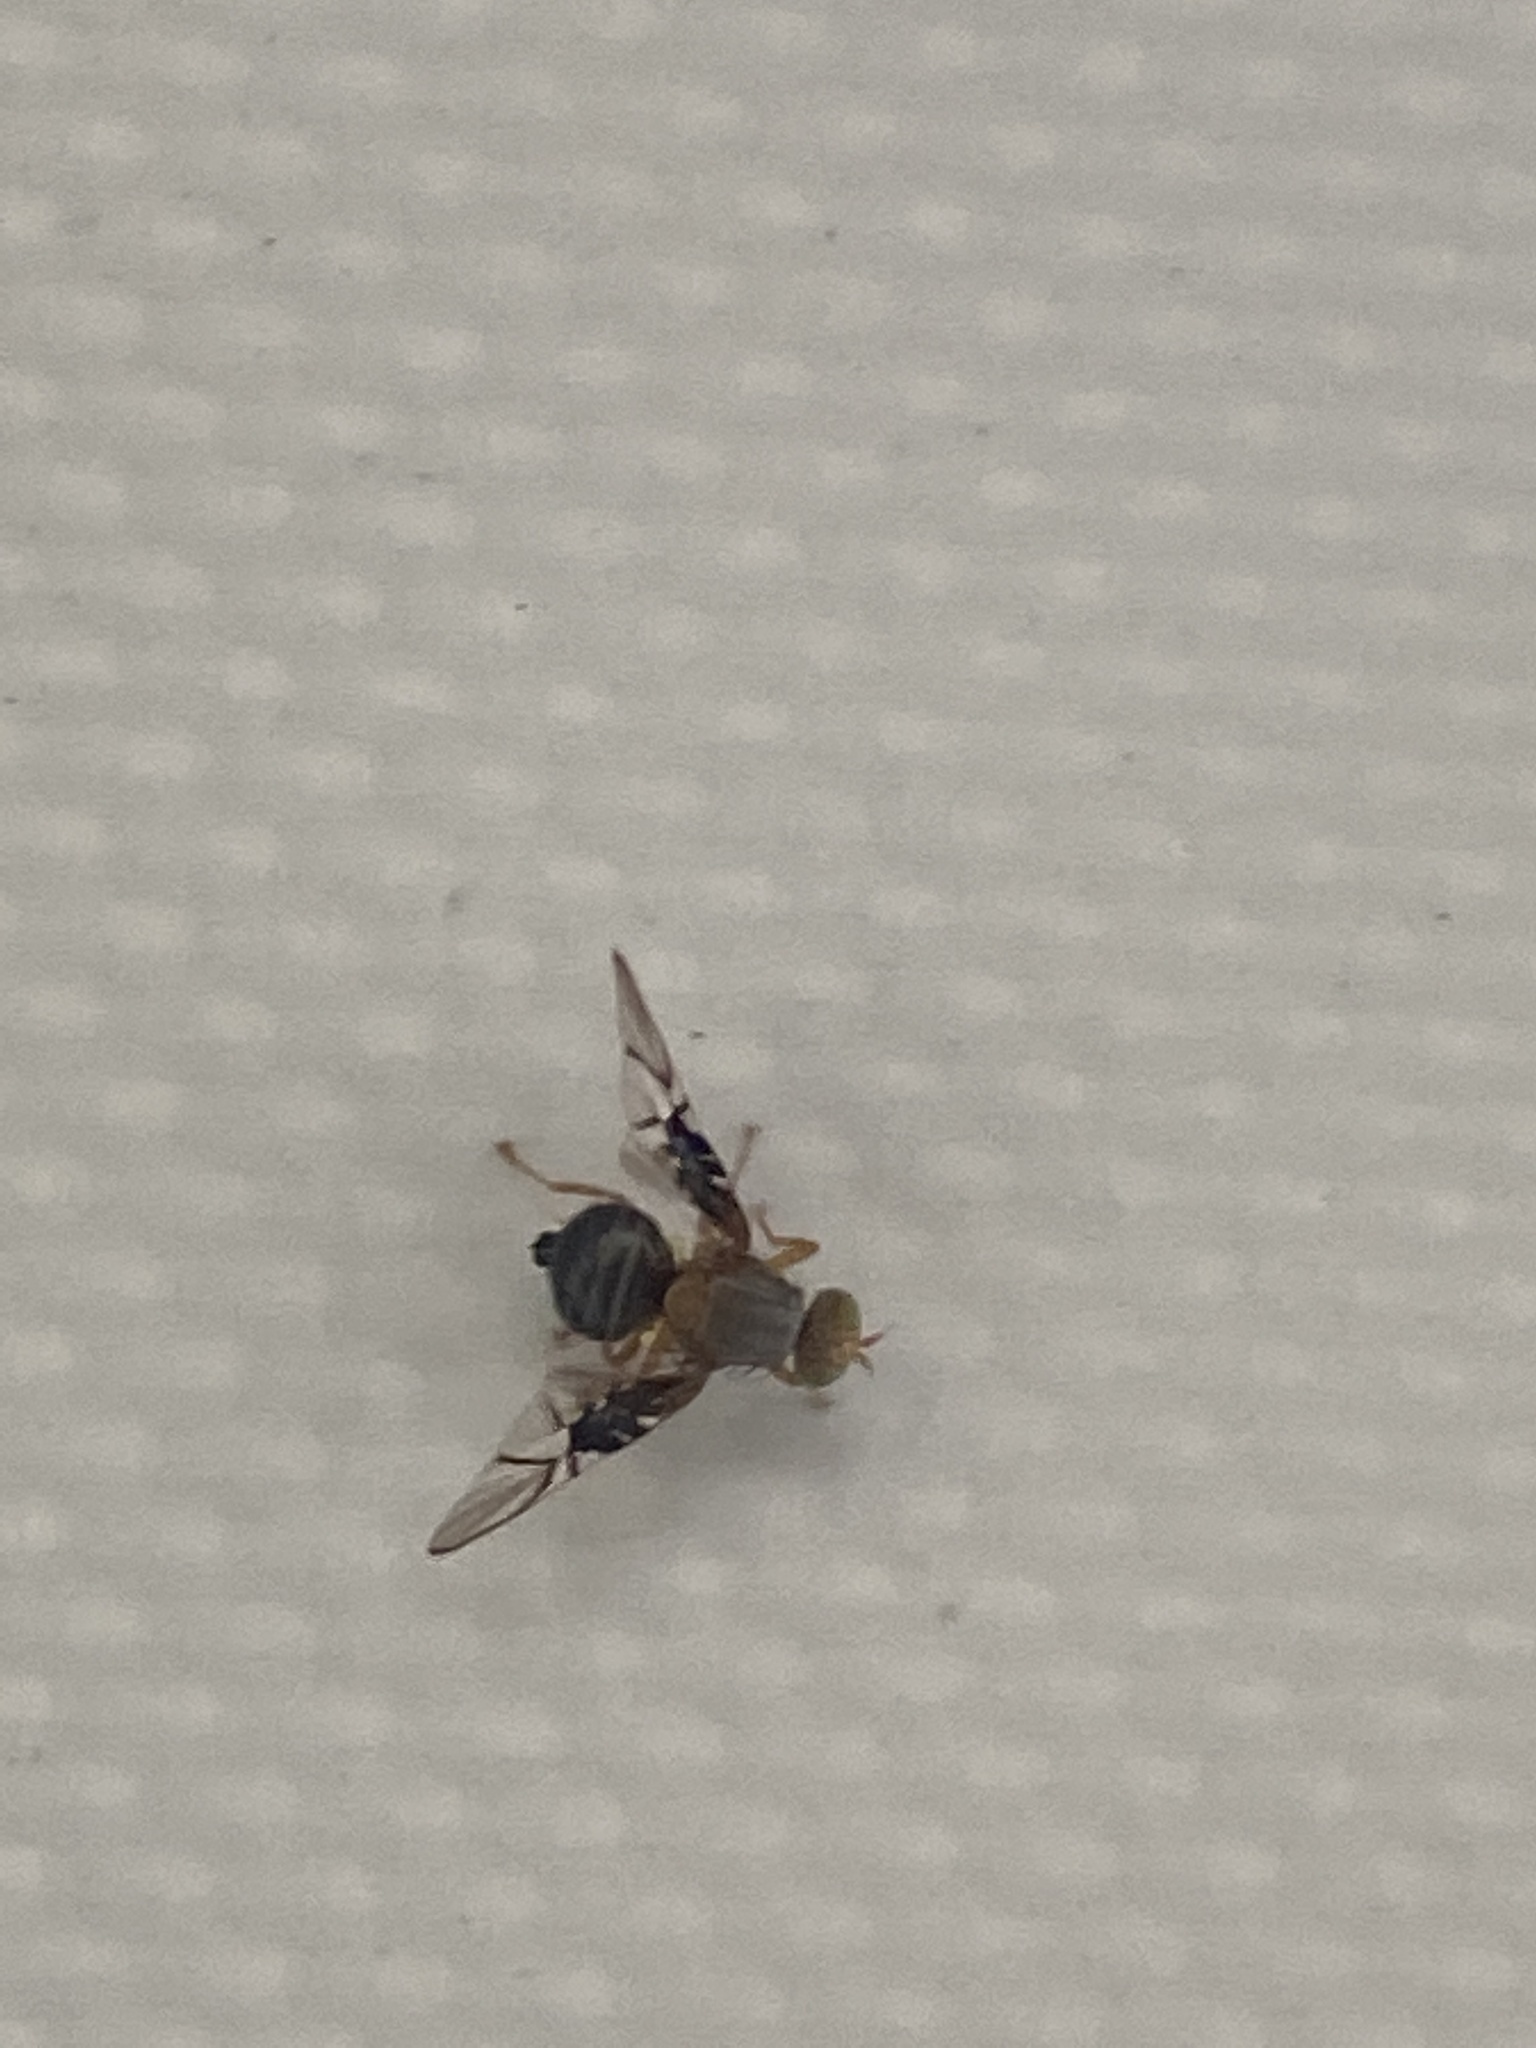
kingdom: Animalia
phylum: Arthropoda
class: Insecta
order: Diptera
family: Tephritidae
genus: Anomoia
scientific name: Anomoia purmunda
